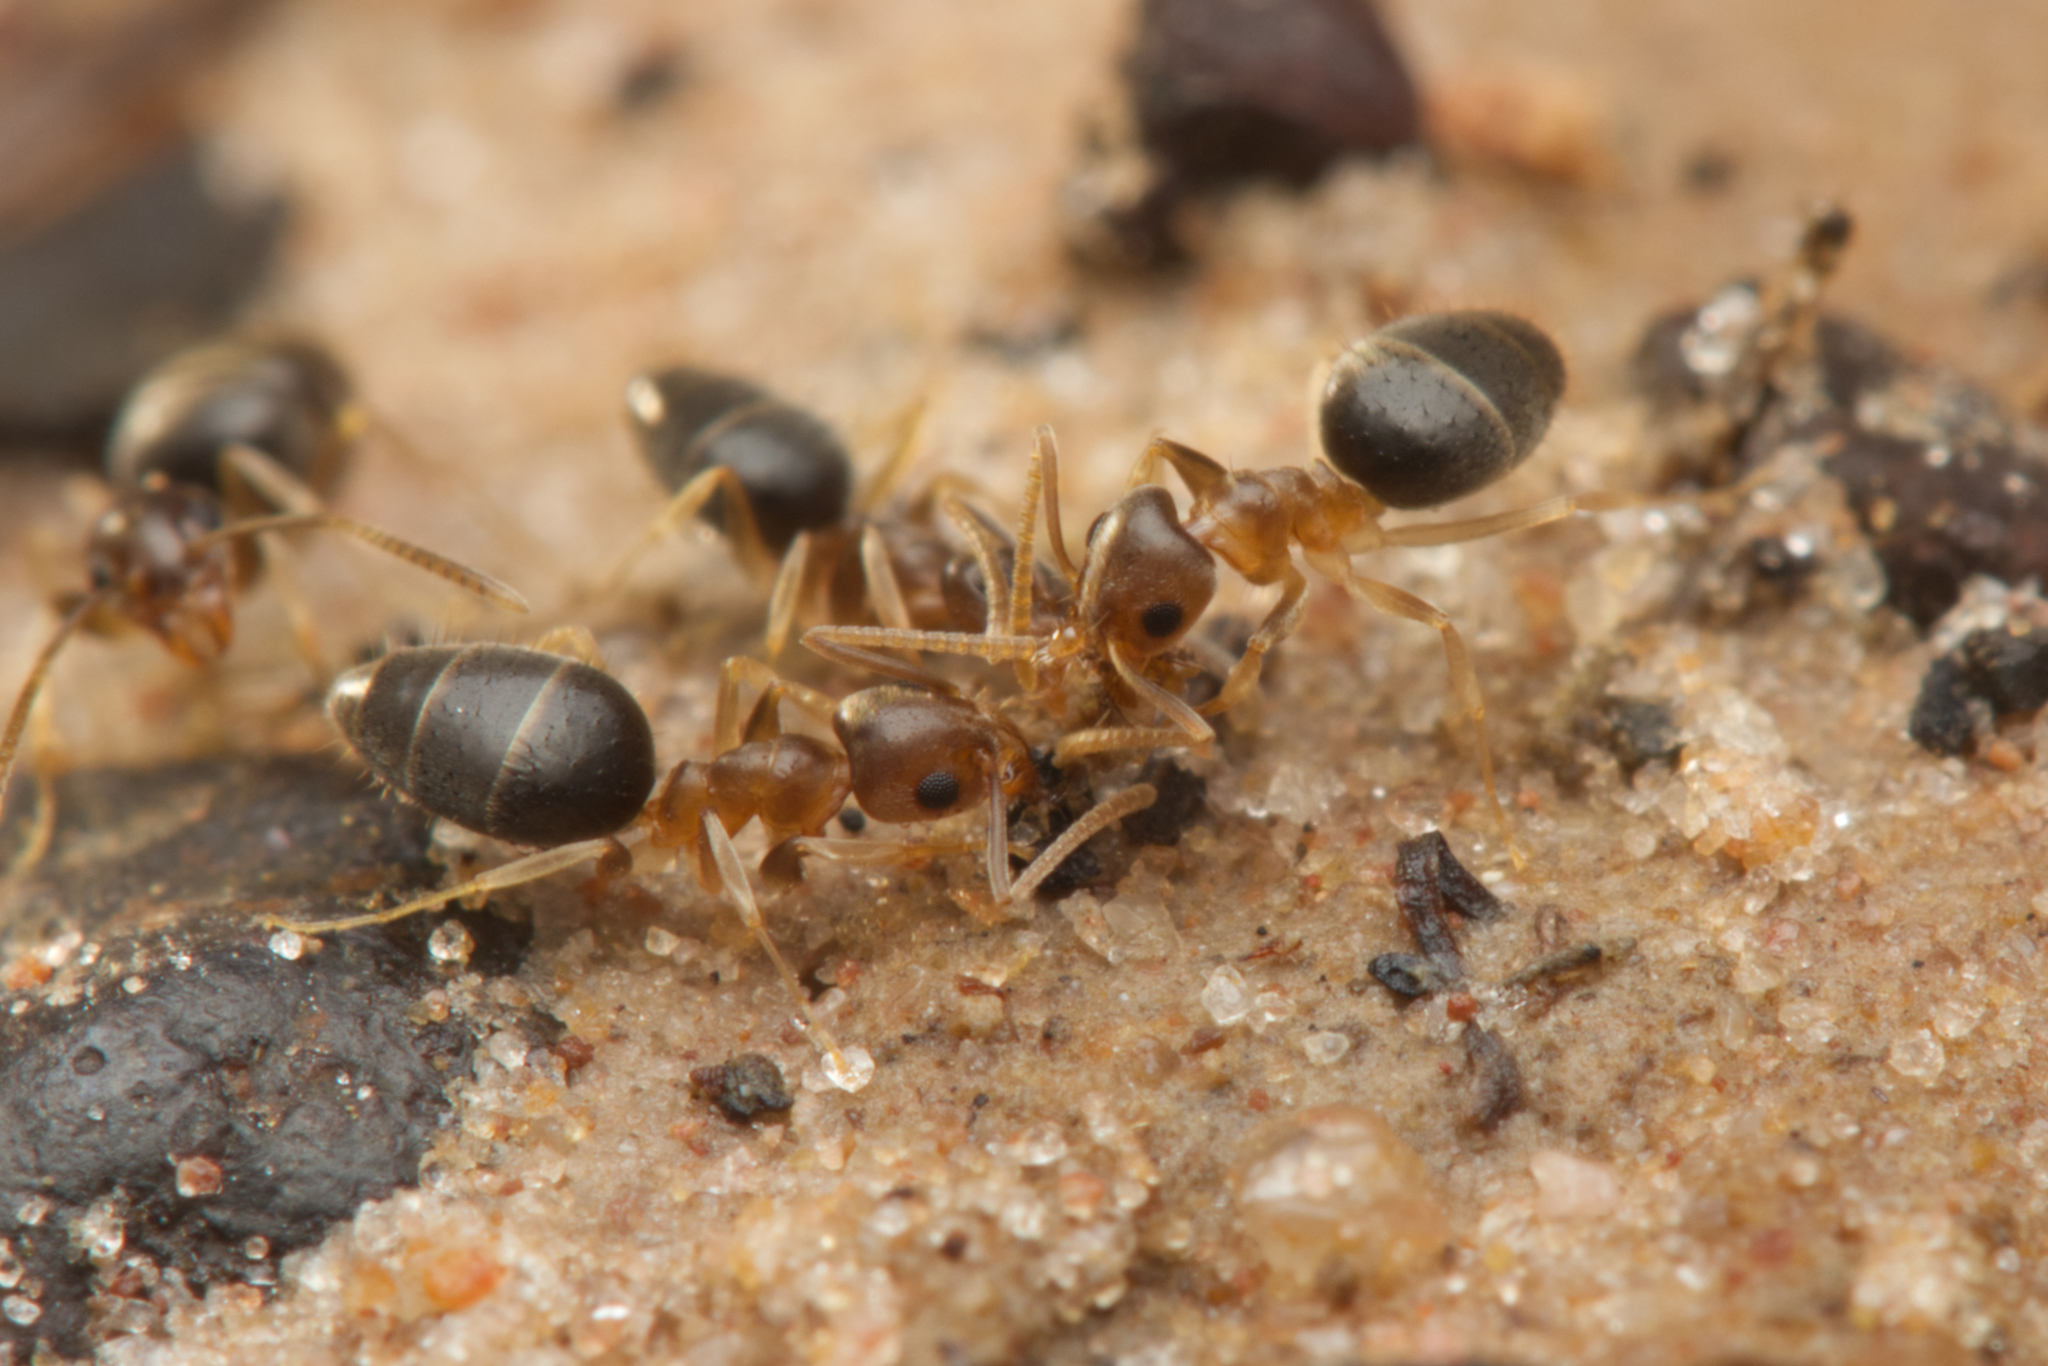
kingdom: Animalia
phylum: Arthropoda
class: Insecta
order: Hymenoptera
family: Formicidae
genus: Technomyrmex
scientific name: Technomyrmex antennus
